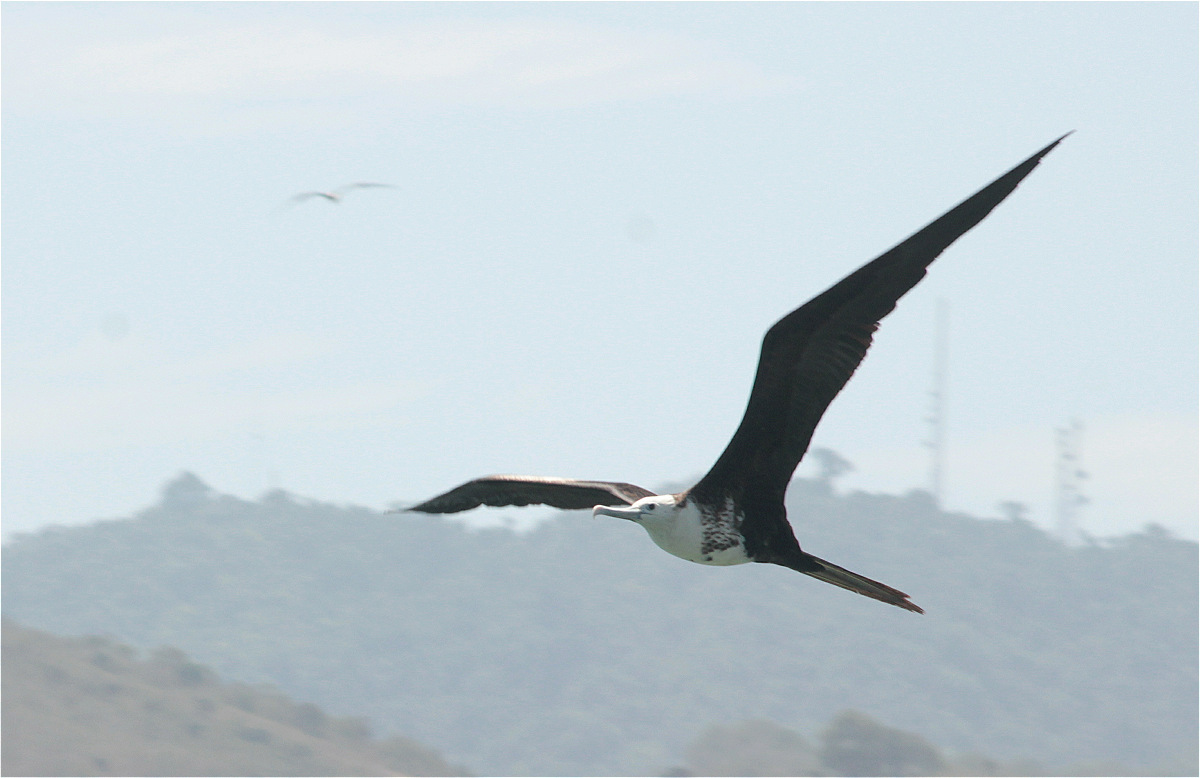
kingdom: Animalia
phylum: Chordata
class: Aves
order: Suliformes
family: Fregatidae
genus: Fregata
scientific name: Fregata magnificens
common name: Magnificent frigatebird
